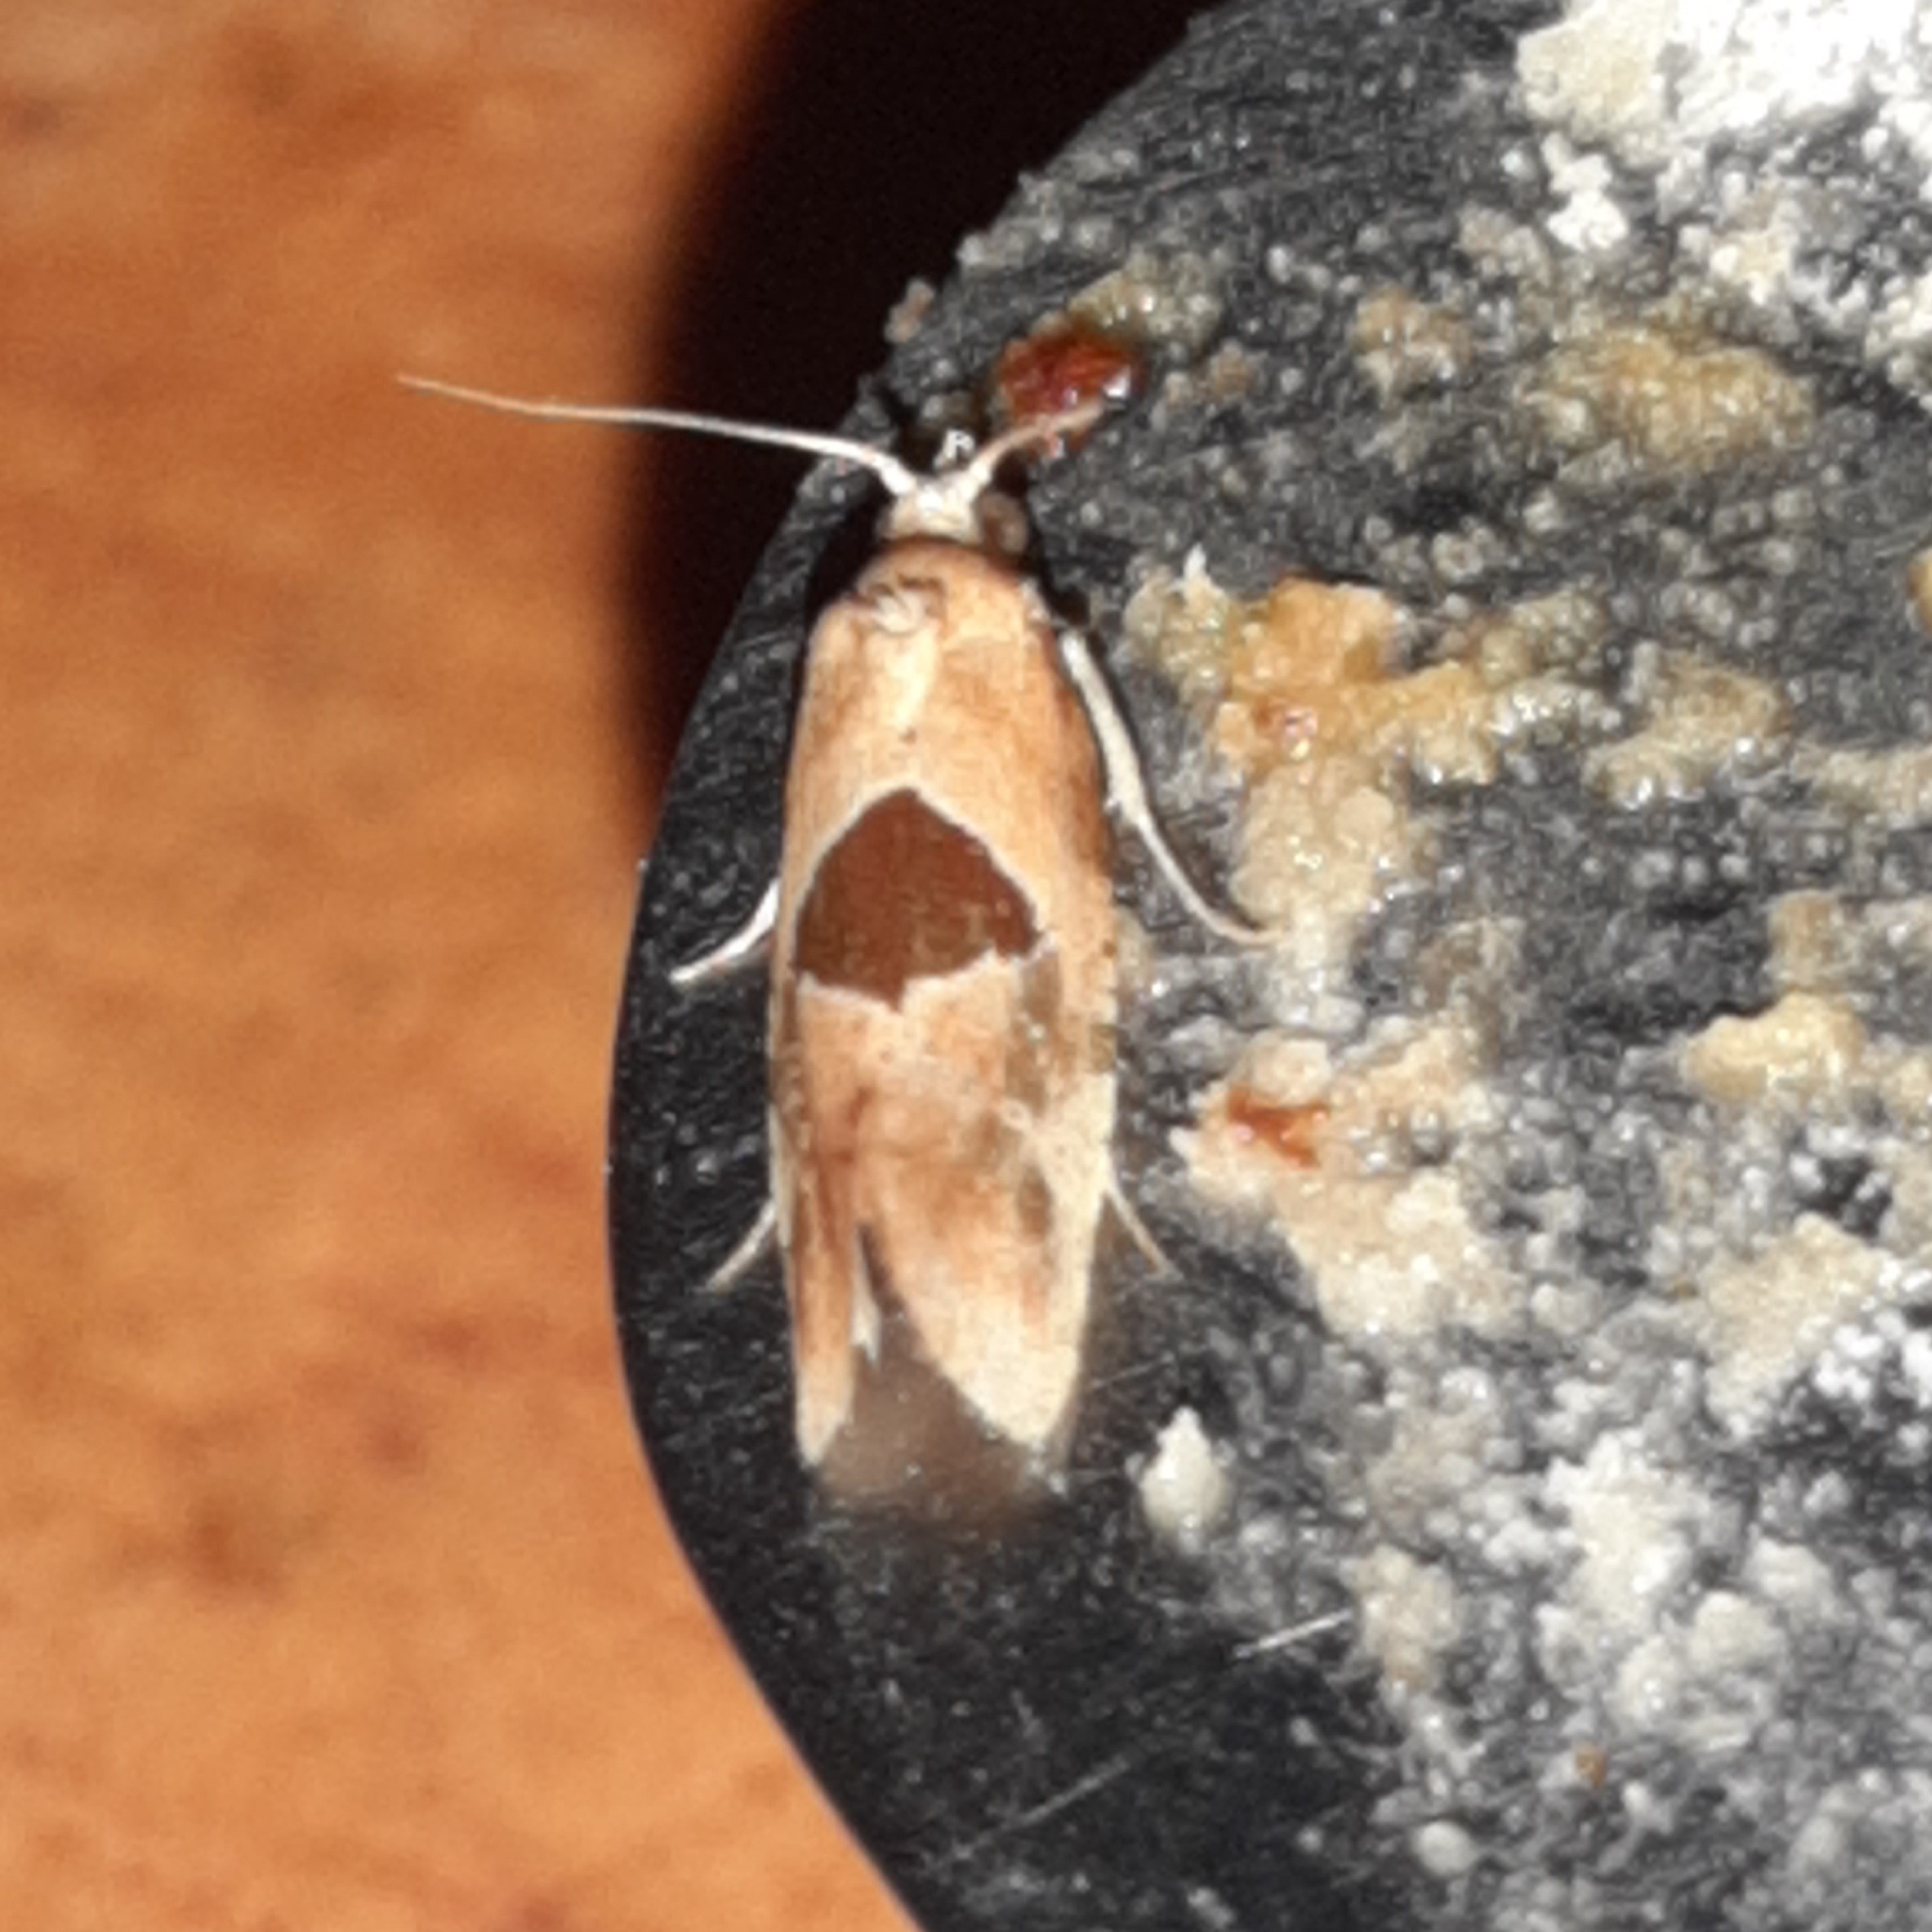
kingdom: Animalia
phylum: Arthropoda
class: Insecta
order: Lepidoptera
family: Noctuidae
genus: Elaphria
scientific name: Elaphria deltoides
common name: Cutworm moth
